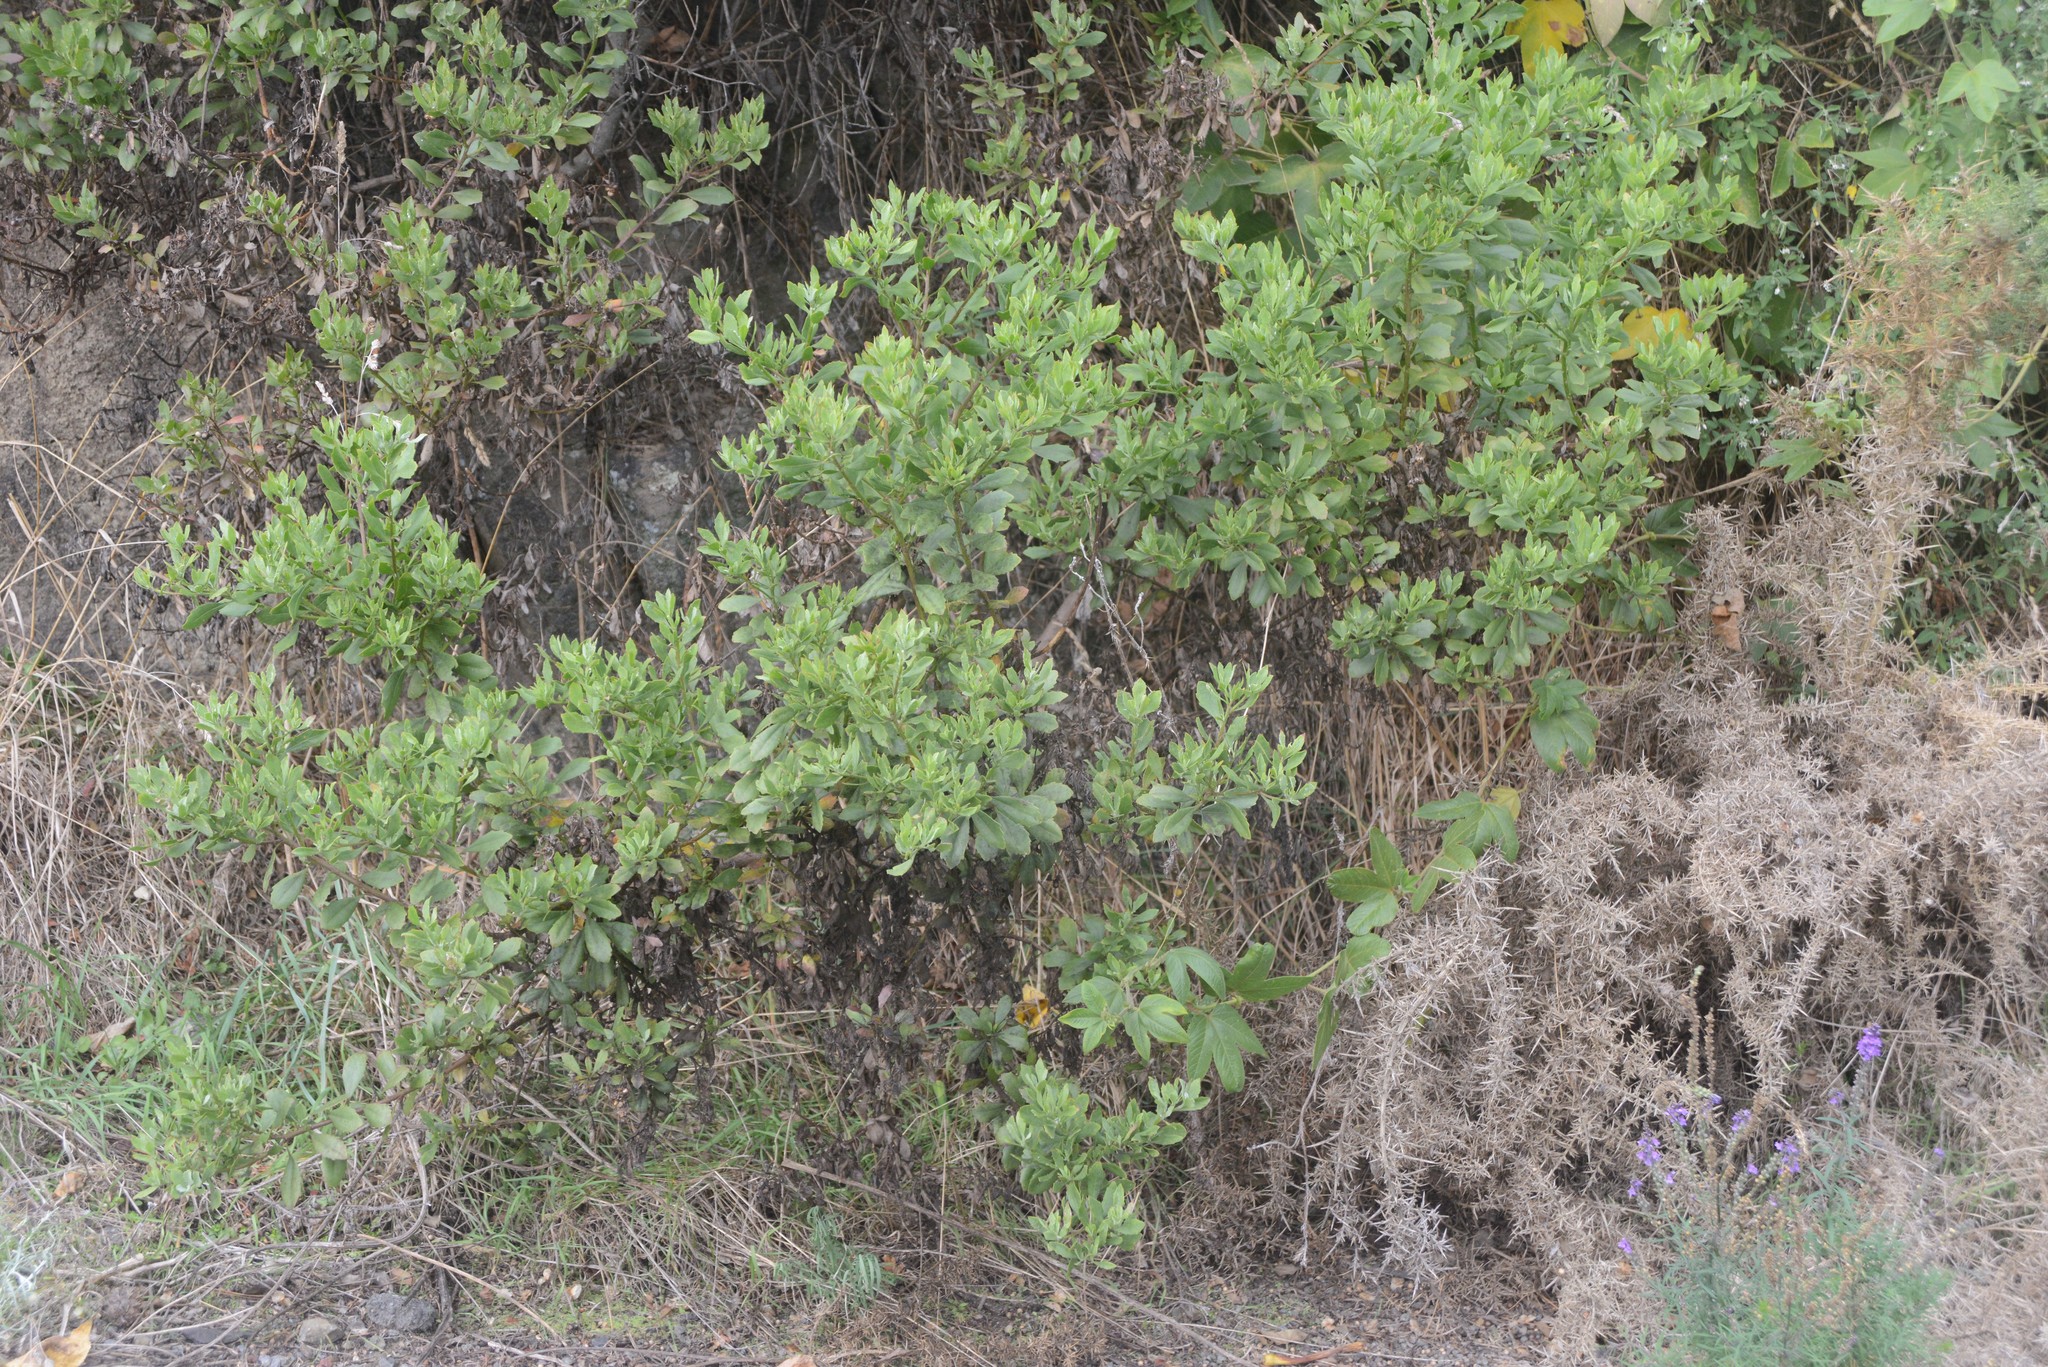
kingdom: Plantae
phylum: Tracheophyta
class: Magnoliopsida
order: Asterales
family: Asteraceae
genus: Osteospermum
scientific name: Osteospermum moniliferum
